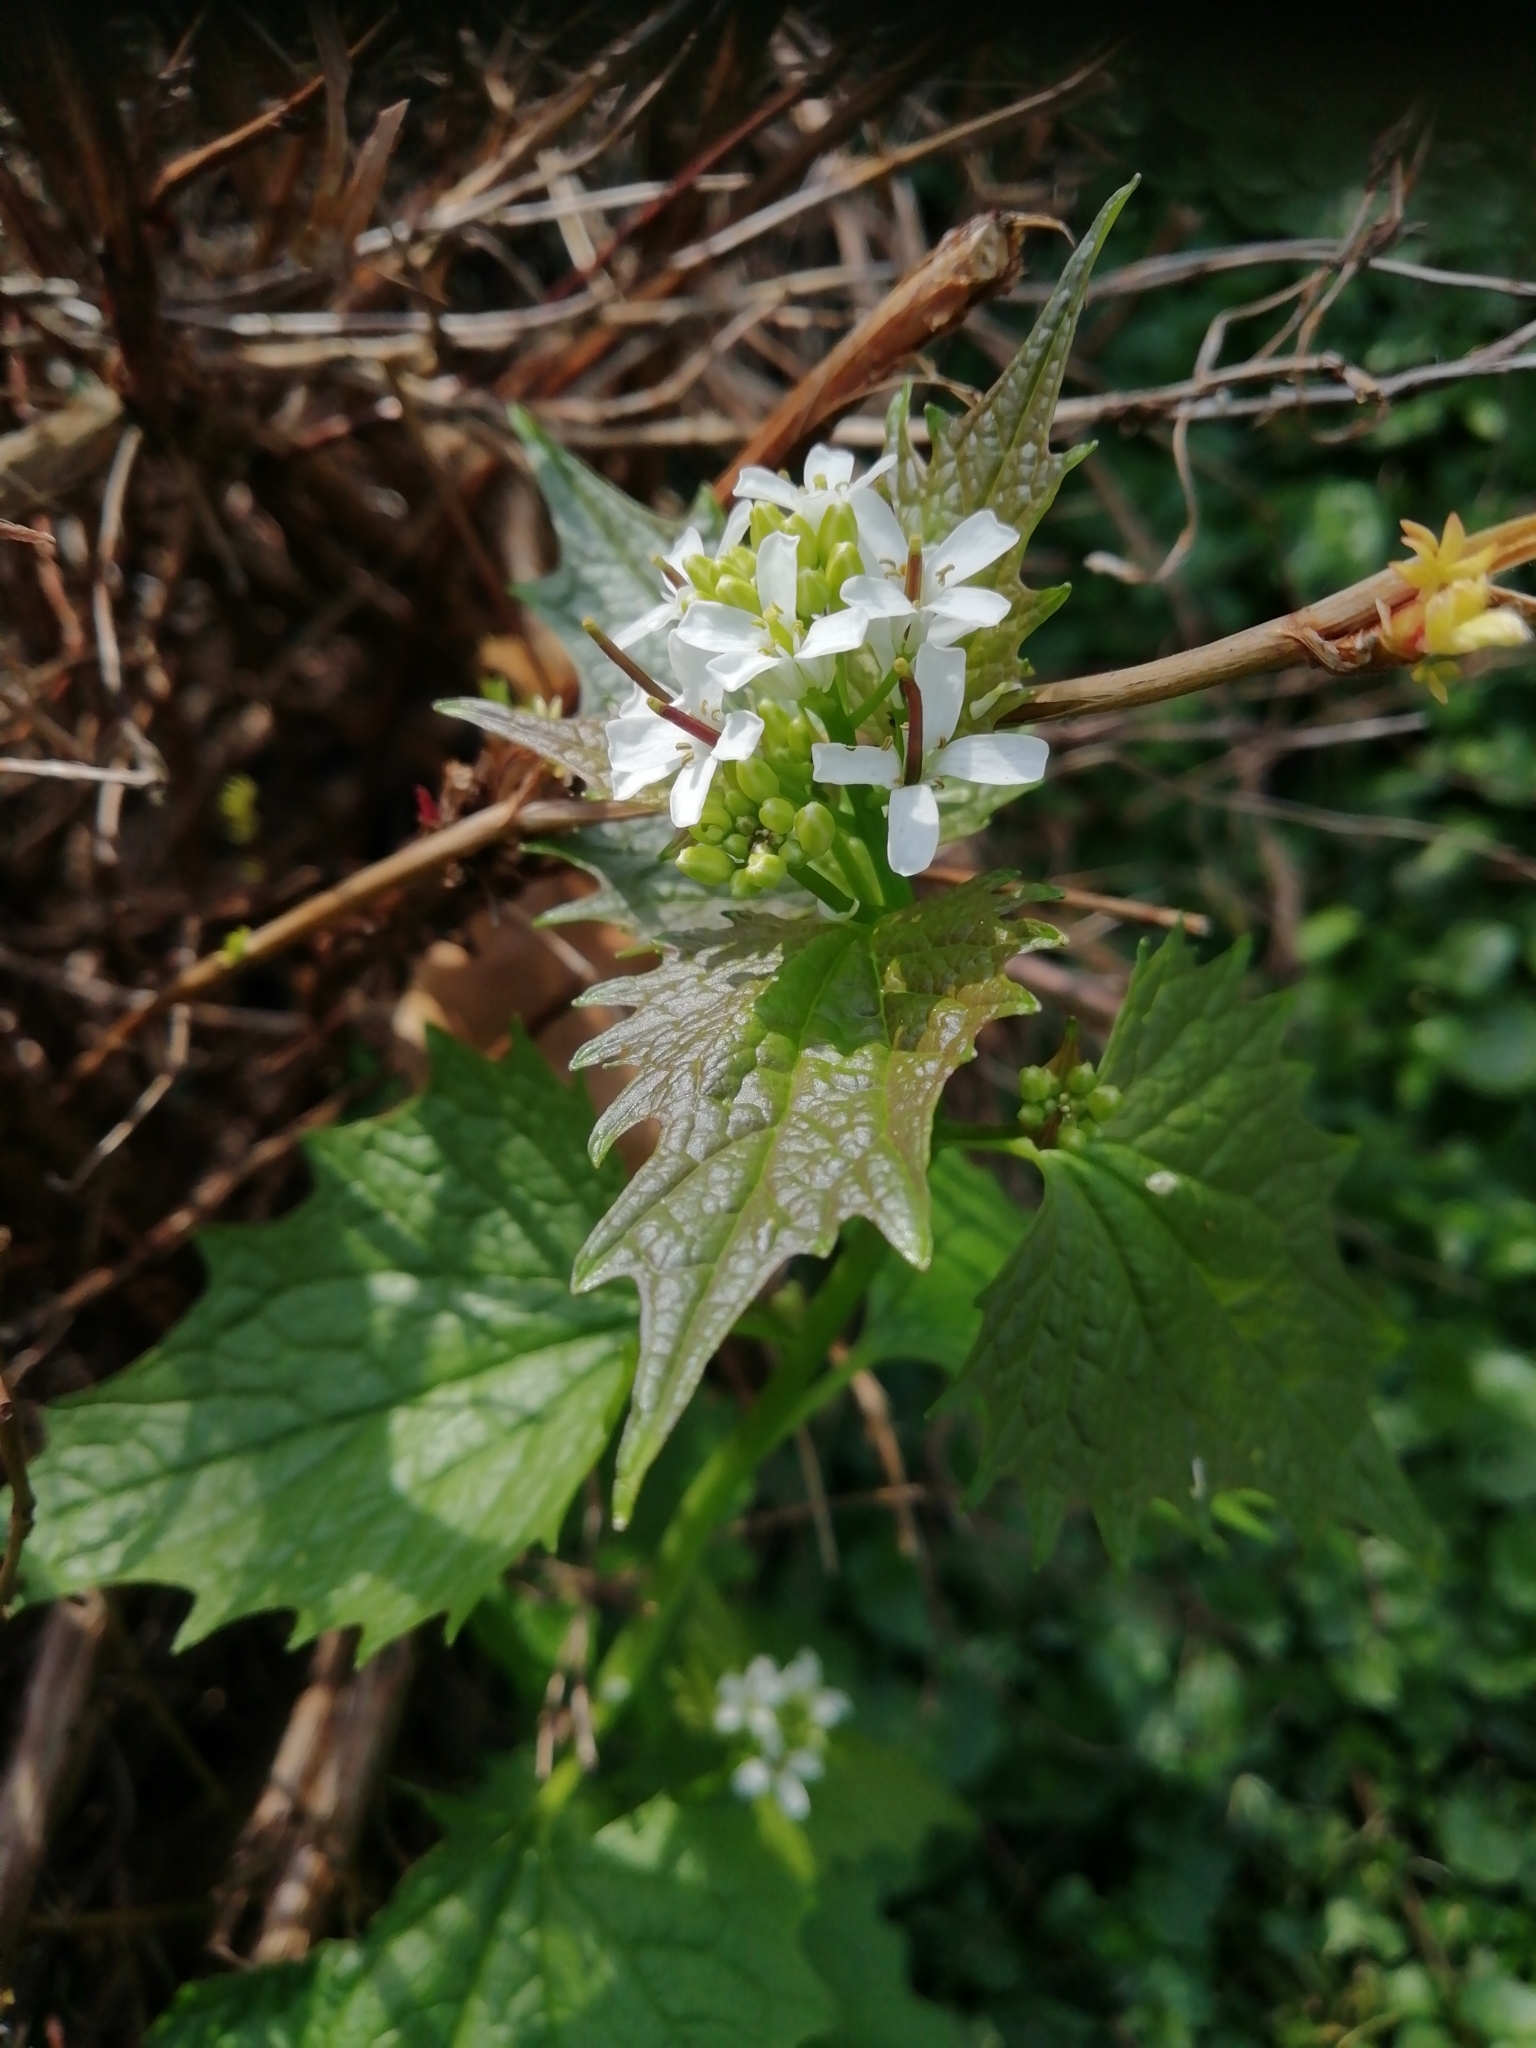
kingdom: Plantae
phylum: Tracheophyta
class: Magnoliopsida
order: Brassicales
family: Brassicaceae
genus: Alliaria
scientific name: Alliaria petiolata
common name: Garlic mustard
